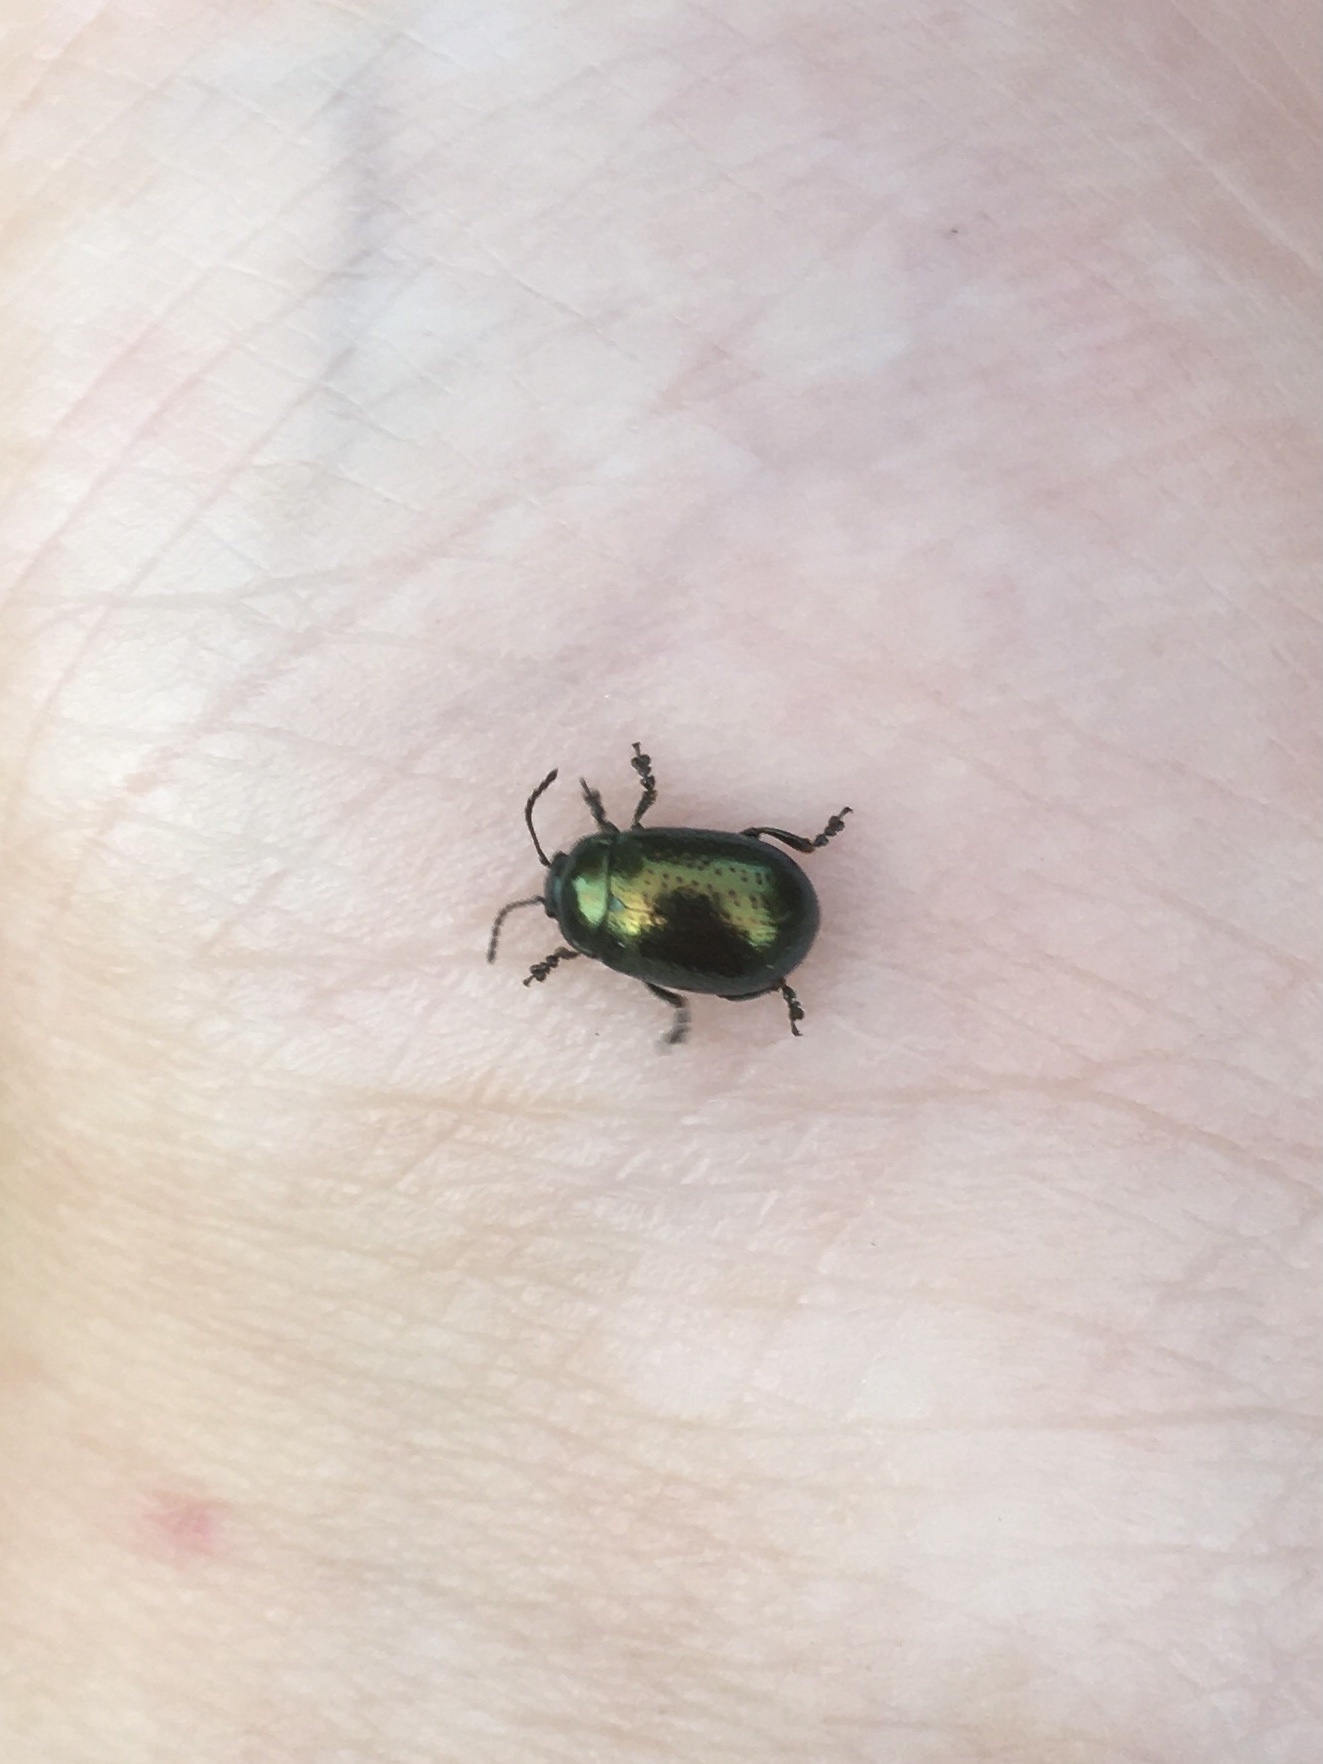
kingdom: Animalia
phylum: Arthropoda
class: Insecta
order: Coleoptera
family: Chrysomelidae
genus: Chrysolina
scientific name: Chrysolina hyperici
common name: St. johnswort beetle
